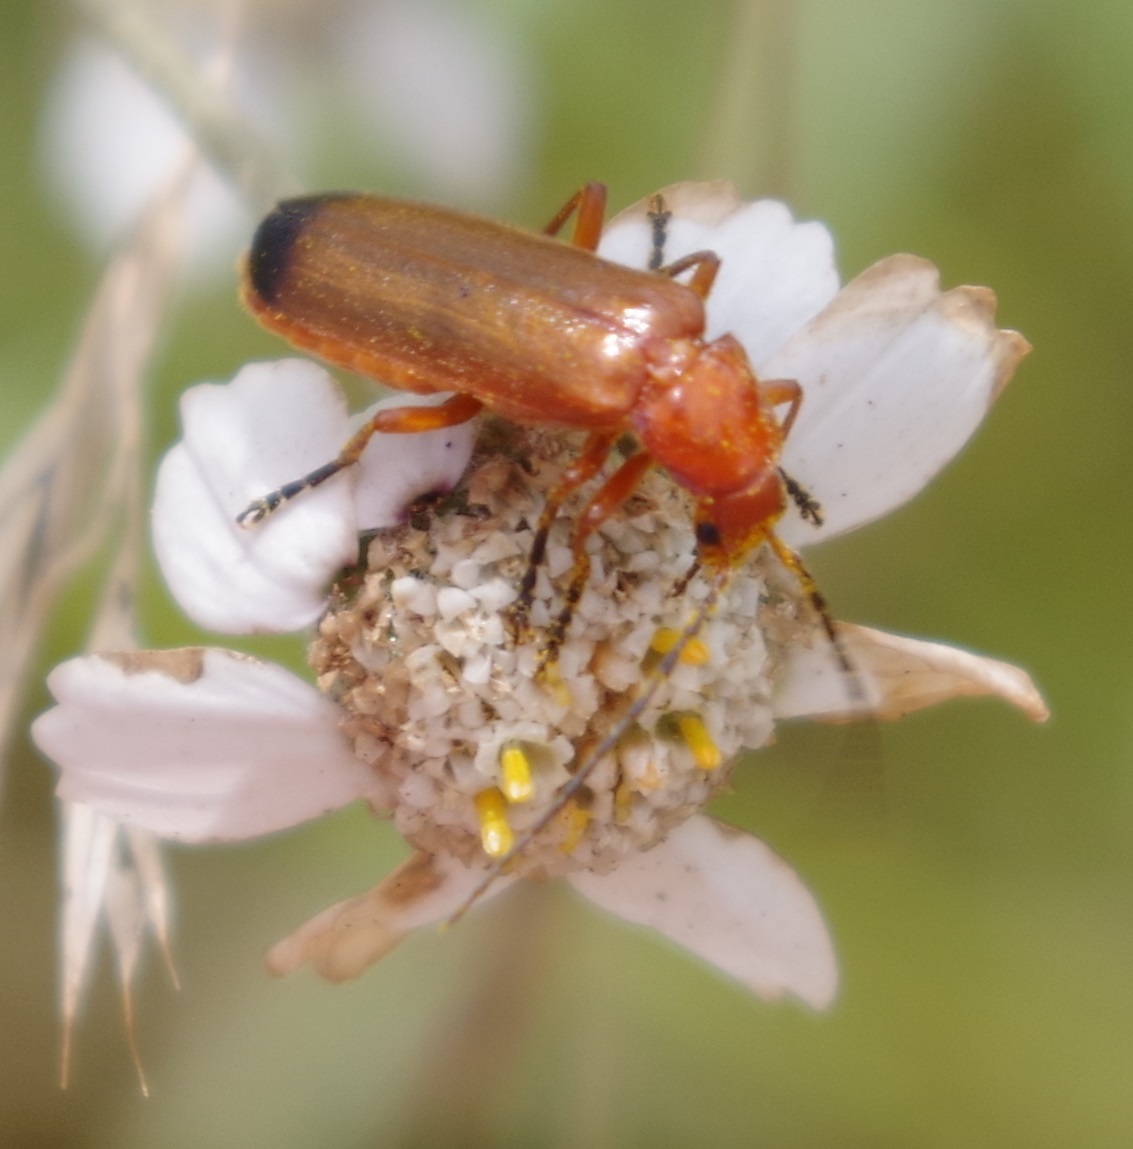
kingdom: Animalia
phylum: Arthropoda
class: Insecta
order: Coleoptera
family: Cantharidae
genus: Rhagonycha
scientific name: Rhagonycha fulva
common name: Common red soldier beetle
